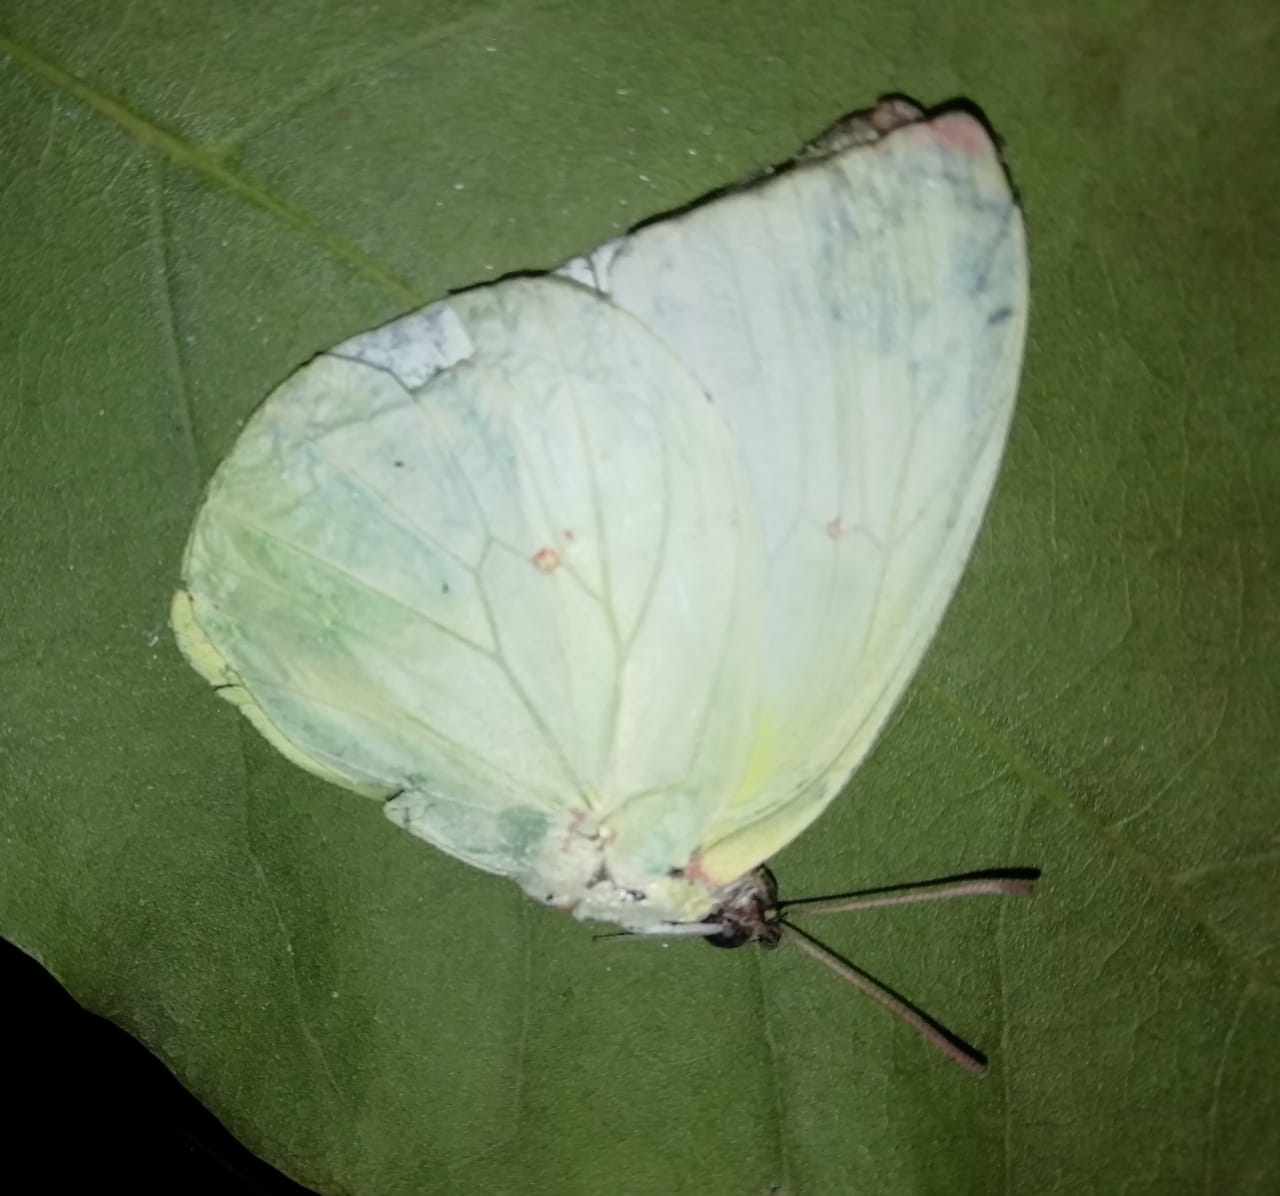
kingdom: Animalia
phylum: Arthropoda
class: Insecta
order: Lepidoptera
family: Pieridae
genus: Catopsilia
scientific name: Catopsilia pomona
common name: Common emigrant
